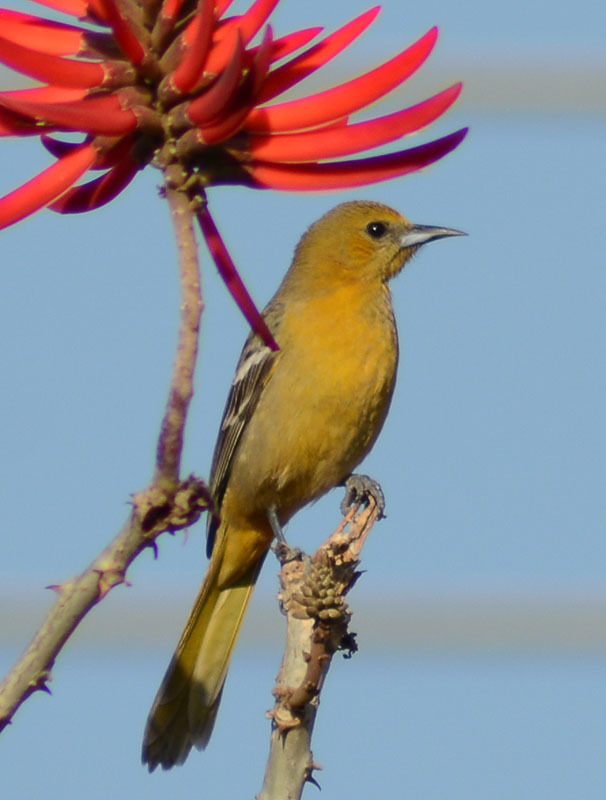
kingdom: Animalia
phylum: Chordata
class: Aves
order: Passeriformes
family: Icteridae
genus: Icterus
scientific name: Icterus cucullatus
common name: Hooded oriole
